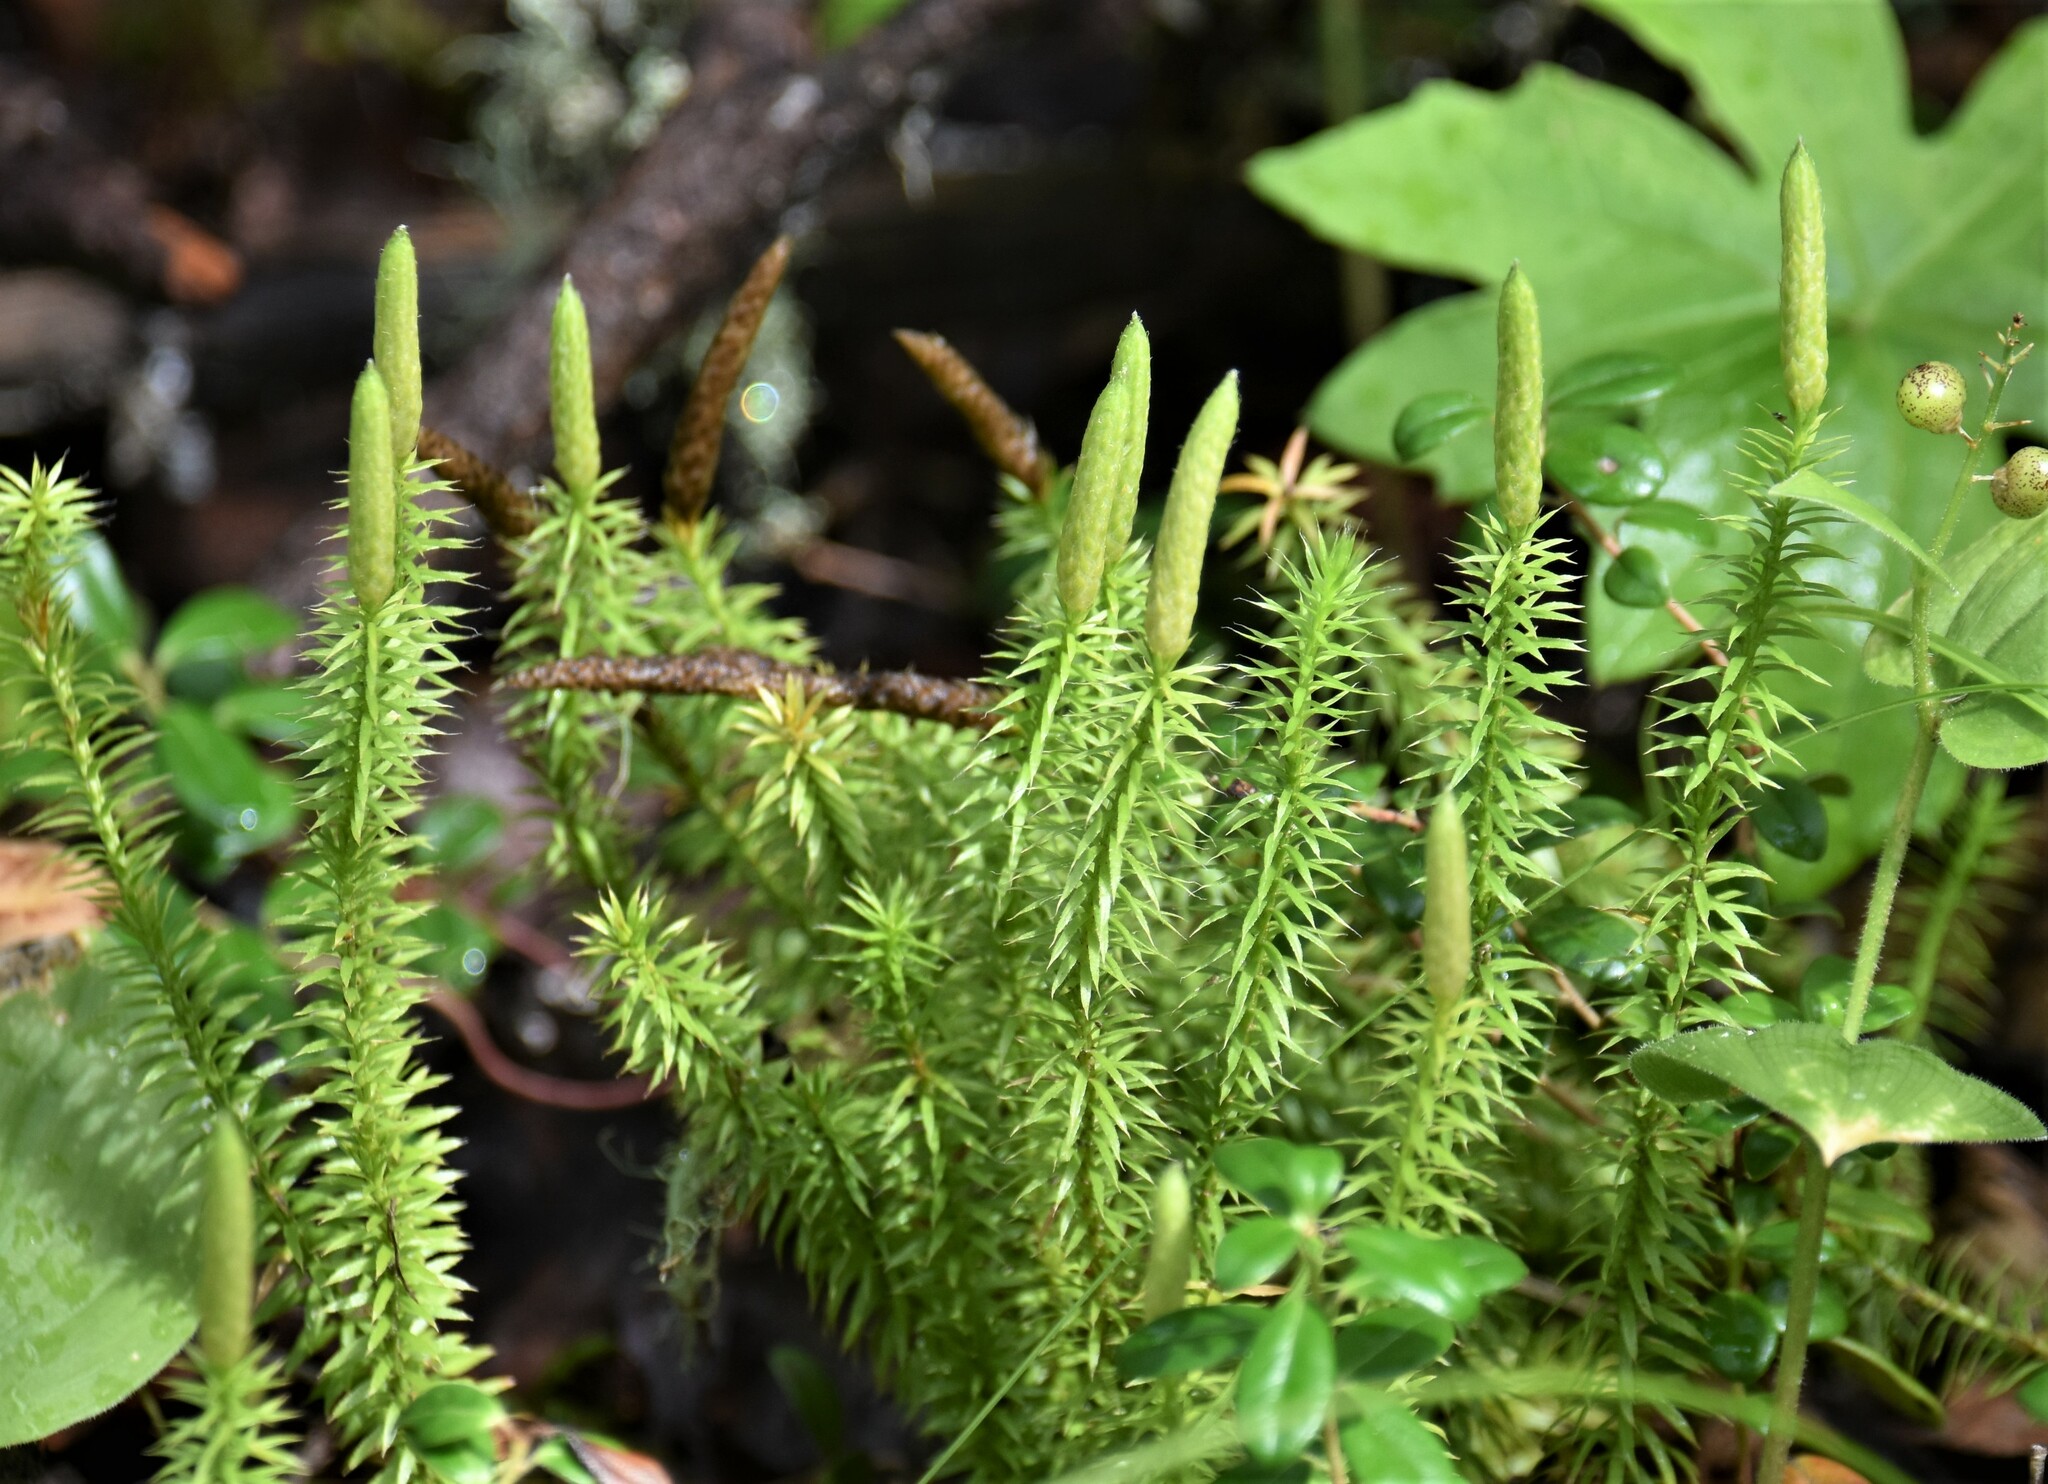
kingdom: Plantae
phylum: Tracheophyta
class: Lycopodiopsida
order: Lycopodiales
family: Lycopodiaceae
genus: Spinulum
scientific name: Spinulum annotinum
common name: Interrupted club-moss
